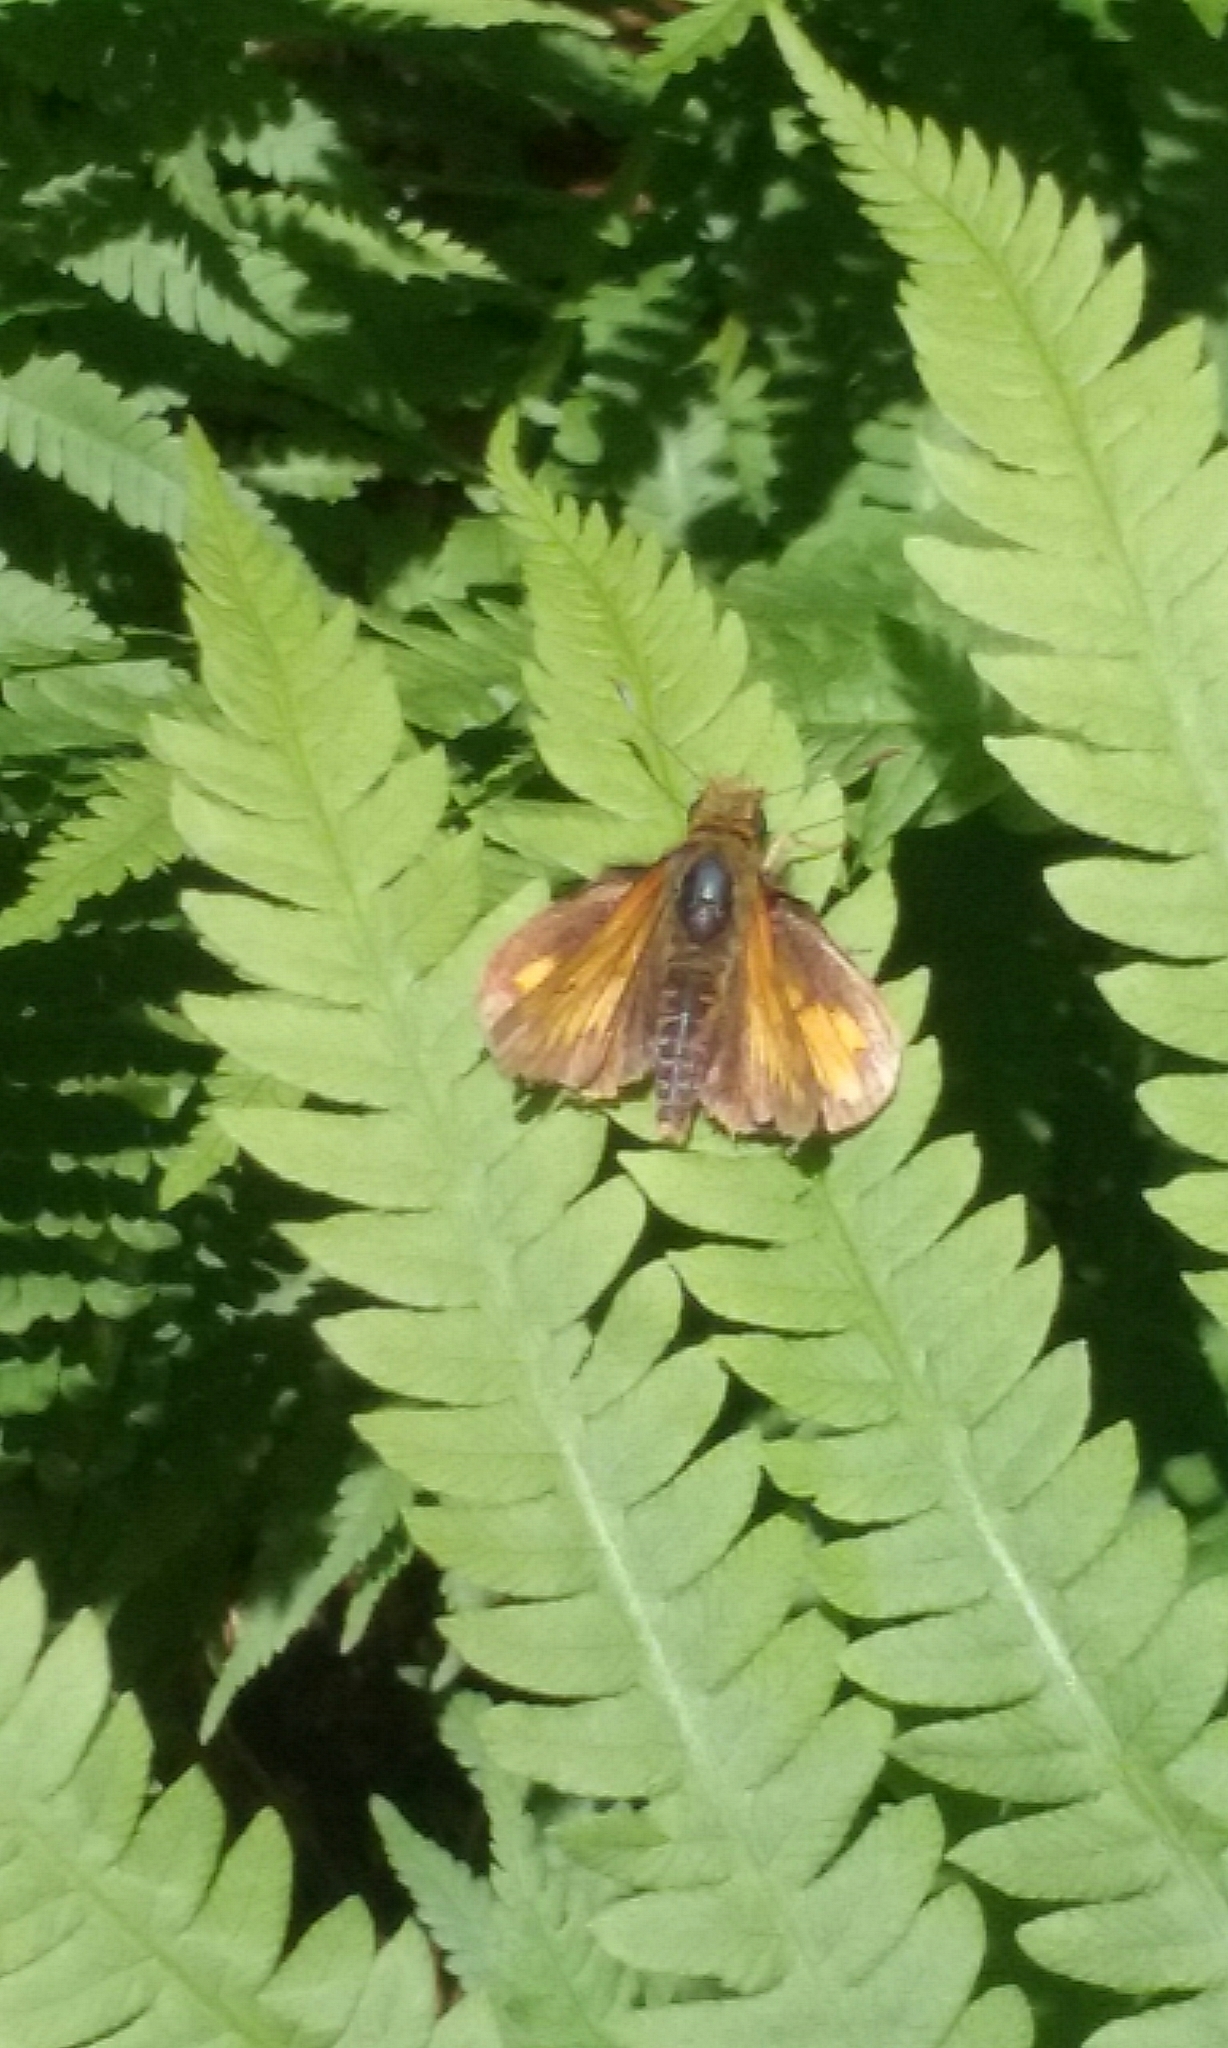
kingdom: Animalia
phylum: Arthropoda
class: Insecta
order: Lepidoptera
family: Hesperiidae
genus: Lon
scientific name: Lon hobomok
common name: Hobomok skipper
